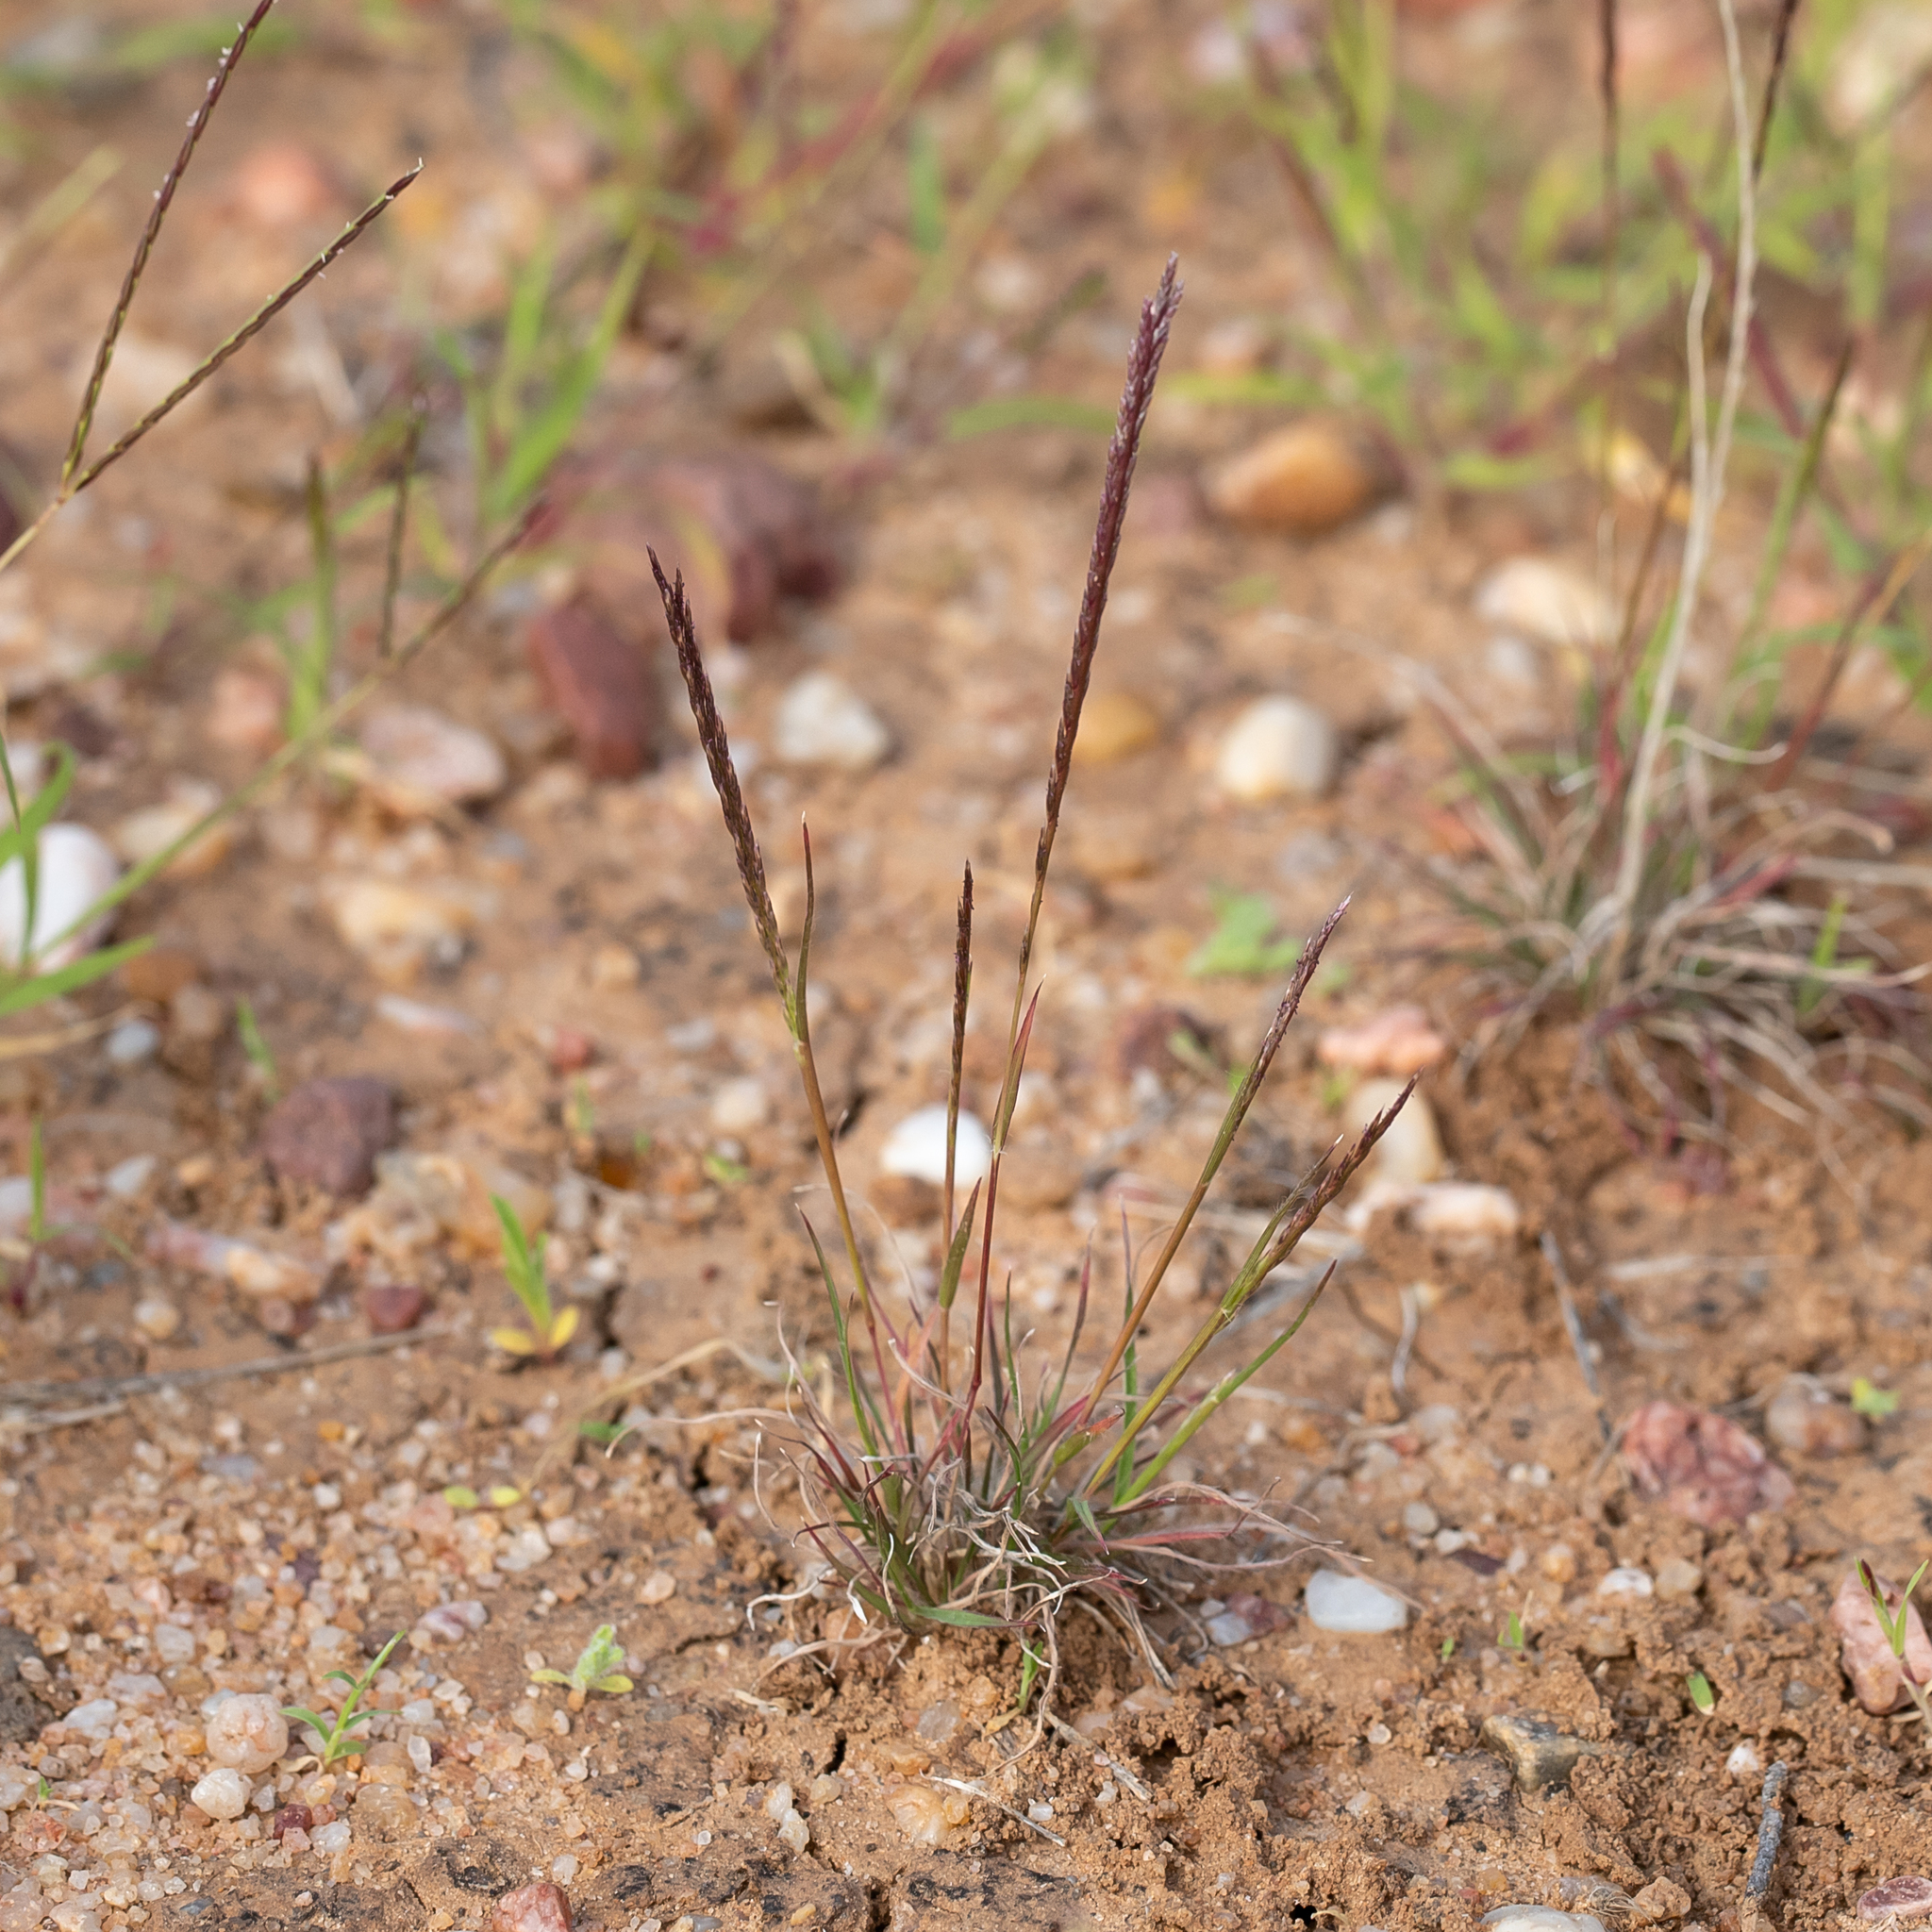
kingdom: Plantae
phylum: Tracheophyta
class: Liliopsida
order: Poales
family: Poaceae
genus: Tripogonella
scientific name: Tripogonella loliiformis
